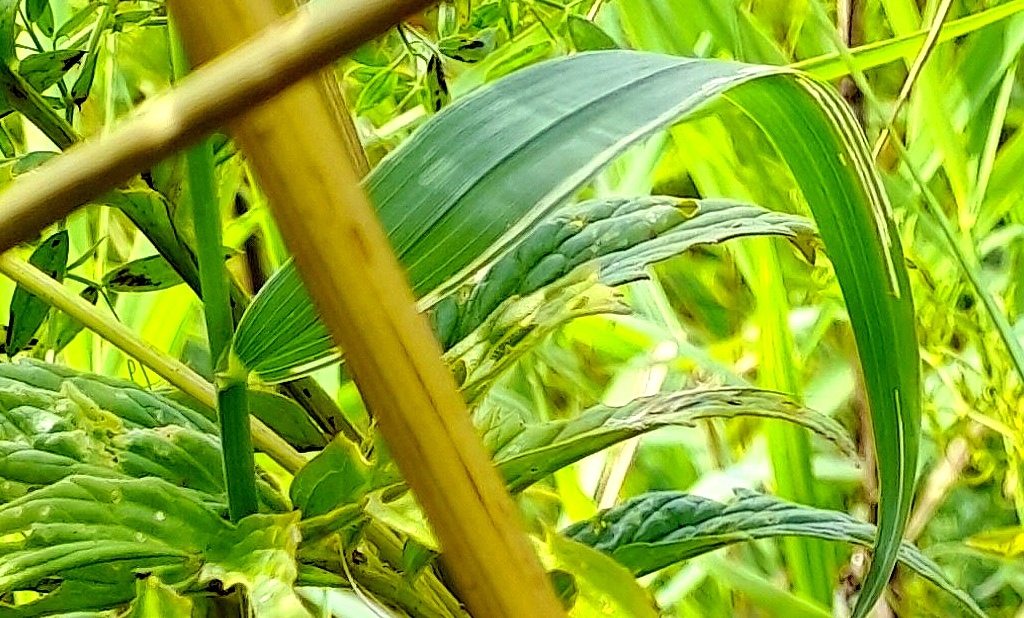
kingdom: Plantae
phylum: Tracheophyta
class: Liliopsida
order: Poales
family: Poaceae
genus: Phragmites
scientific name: Phragmites australis
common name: Common reed
